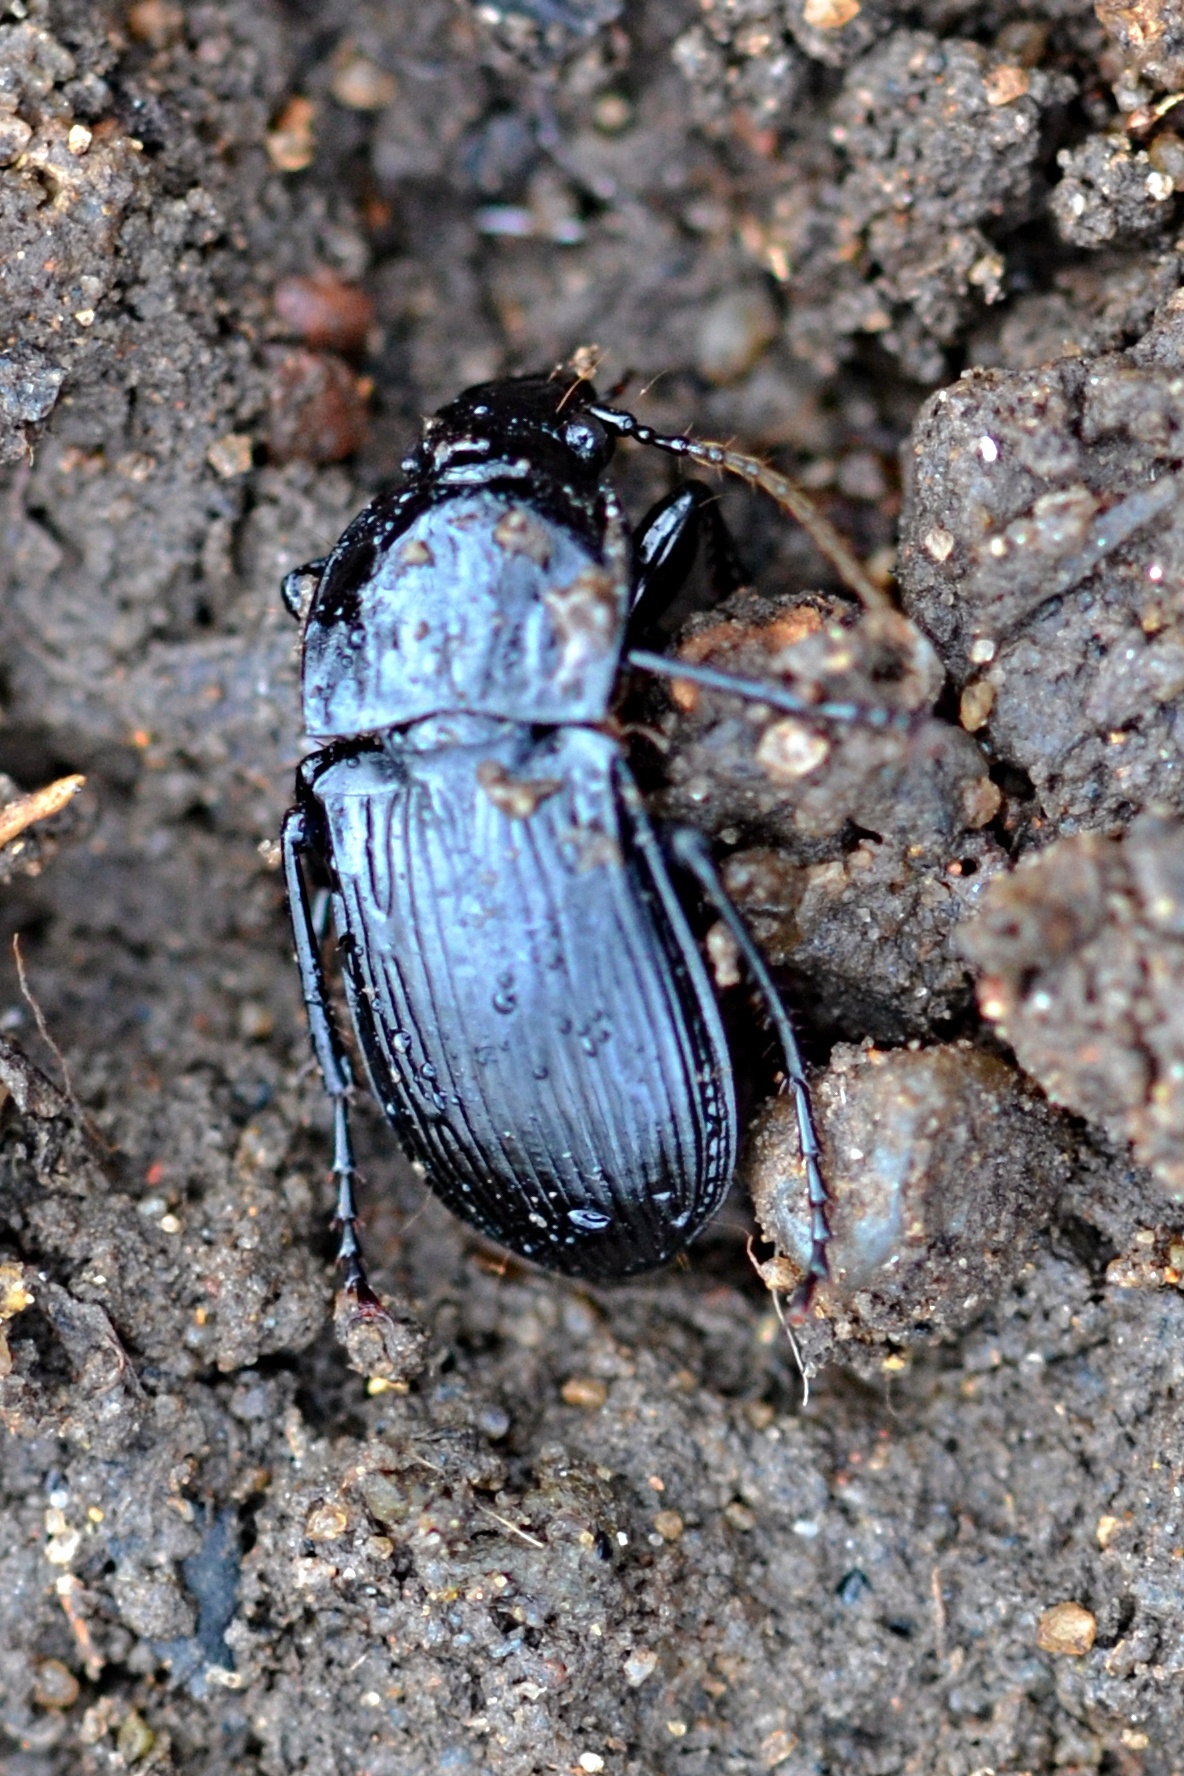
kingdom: Animalia
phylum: Arthropoda
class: Insecta
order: Coleoptera
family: Carabidae
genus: Abax
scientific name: Abax parallelepipedus
